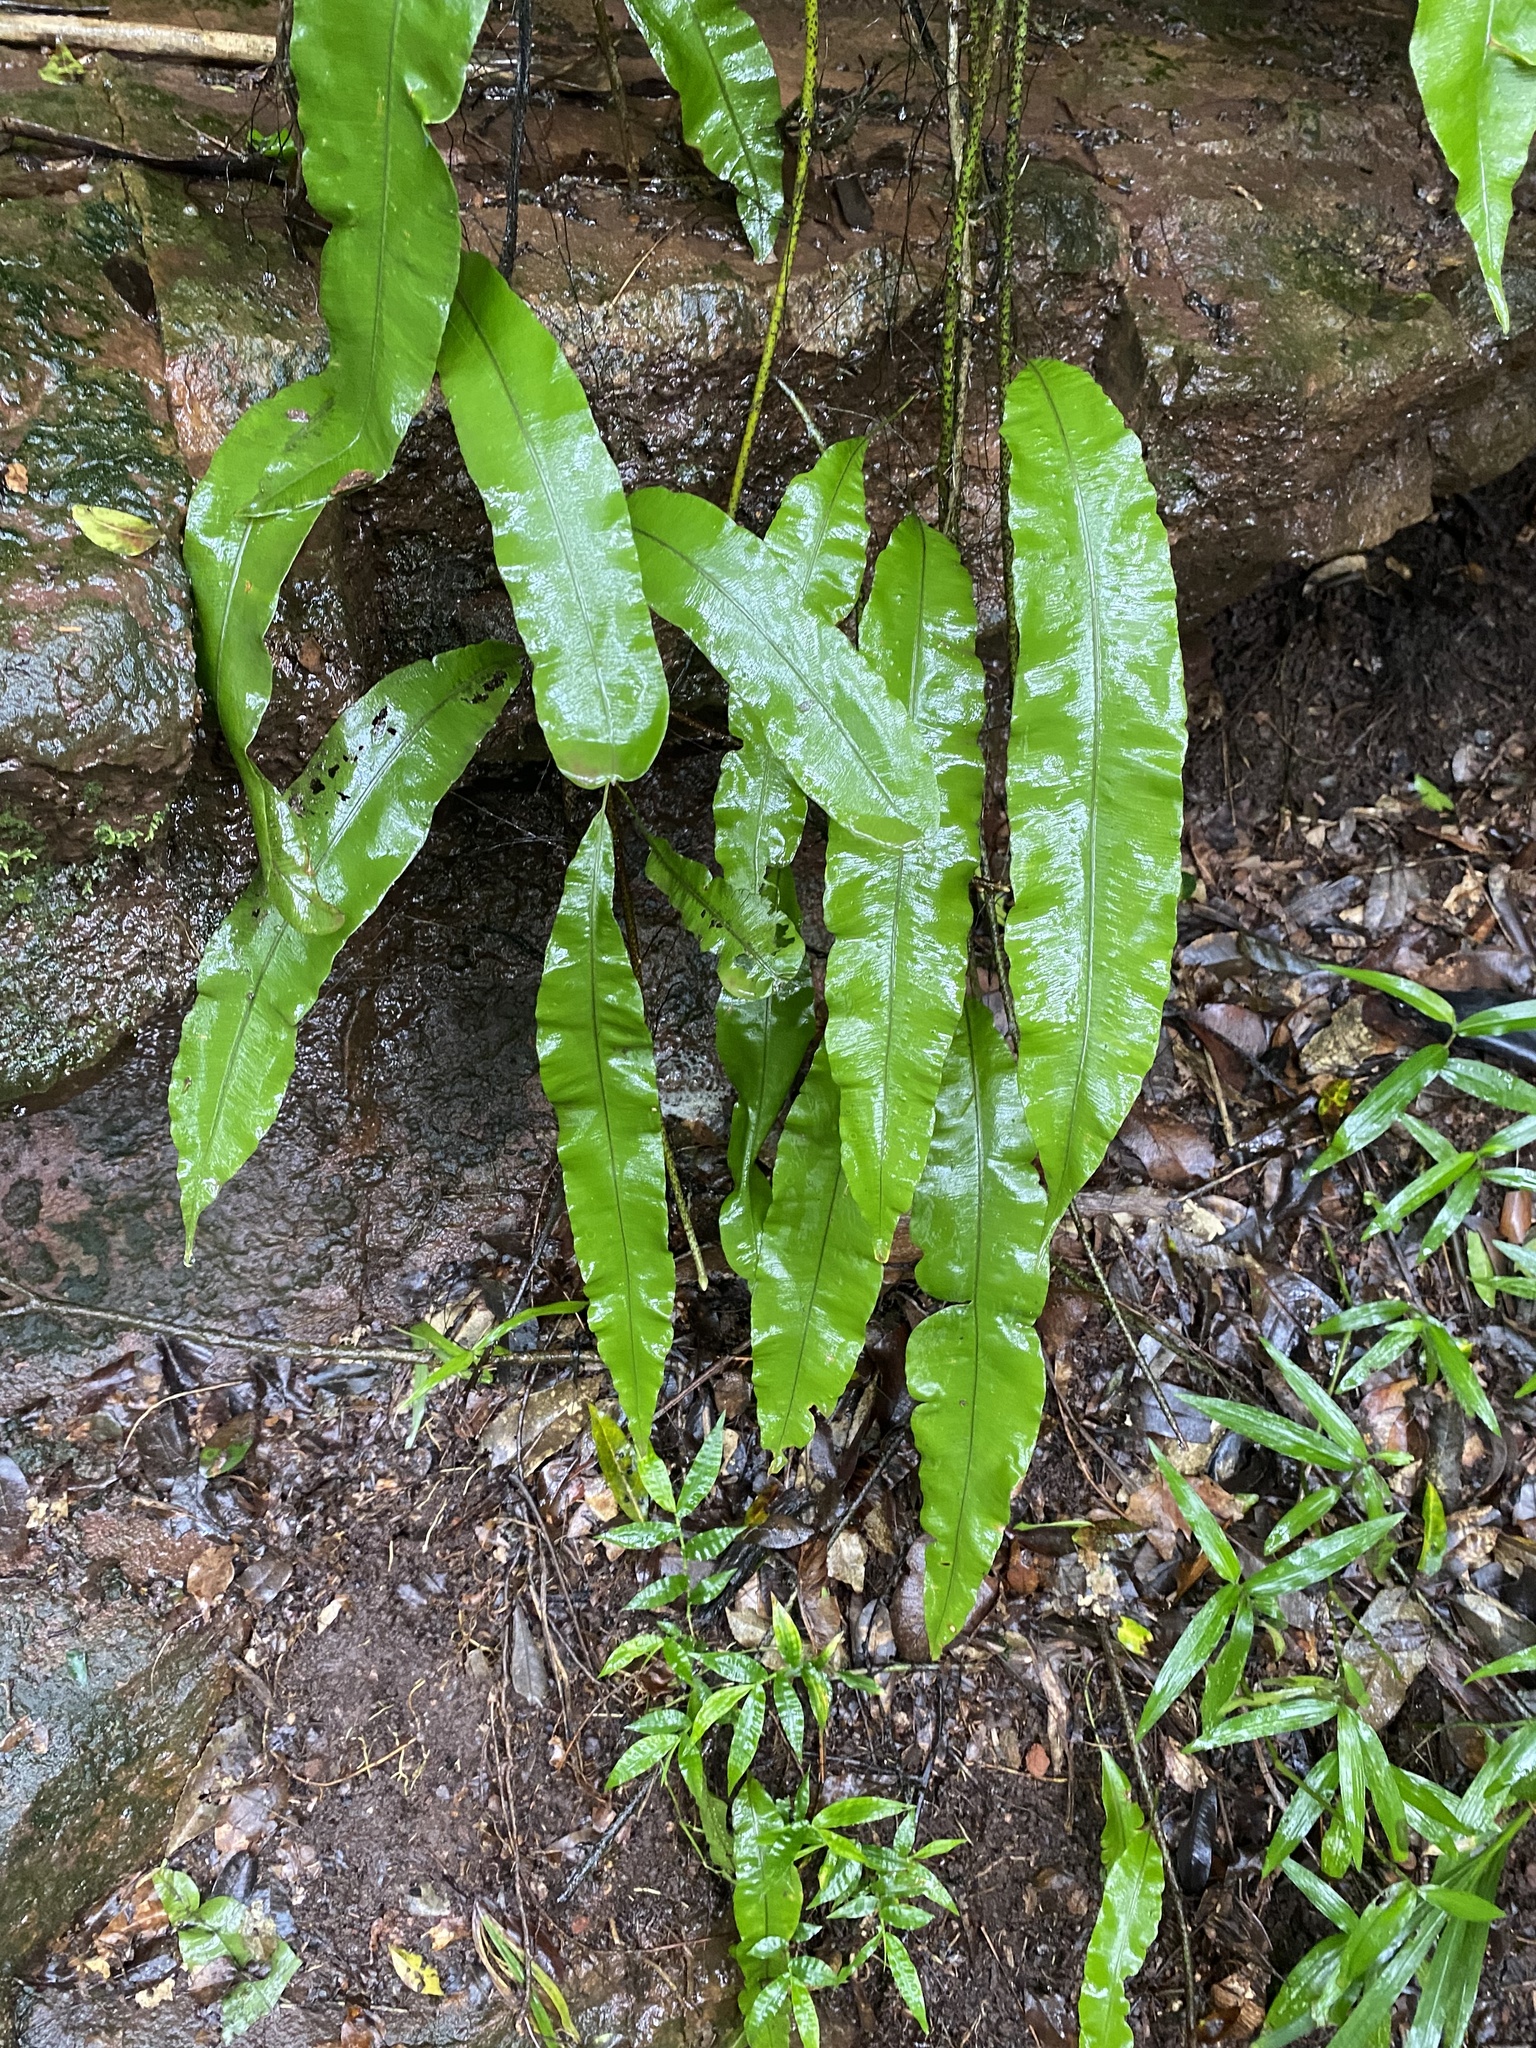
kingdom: Plantae
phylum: Tracheophyta
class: Polypodiopsida
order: Polypodiales
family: Oleandraceae
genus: Oleandra
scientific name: Oleandra distenta
